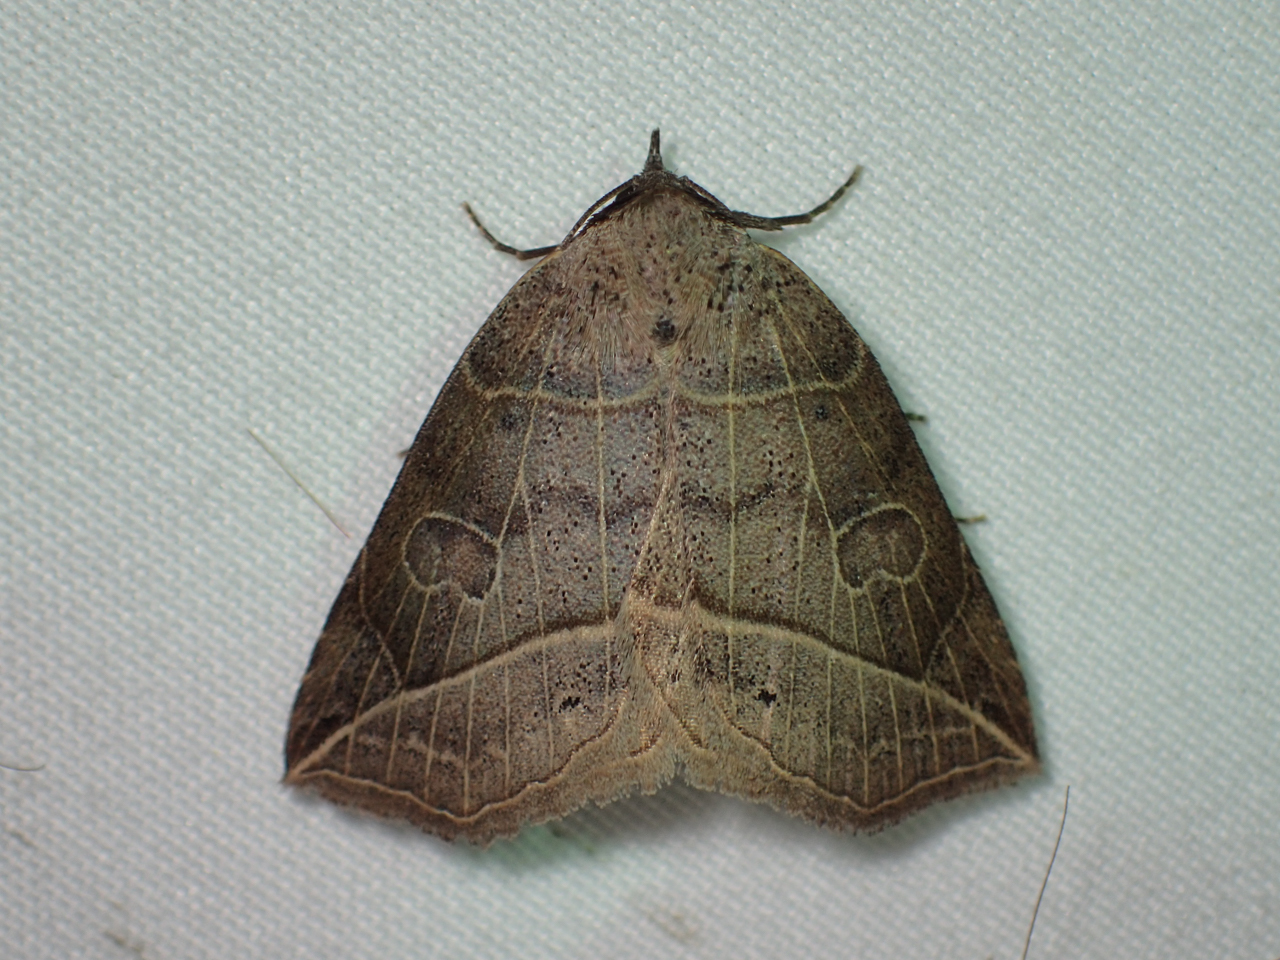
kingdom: Animalia
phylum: Arthropoda
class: Insecta
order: Lepidoptera
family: Erebidae
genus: Isogona
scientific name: Isogona tenuis
